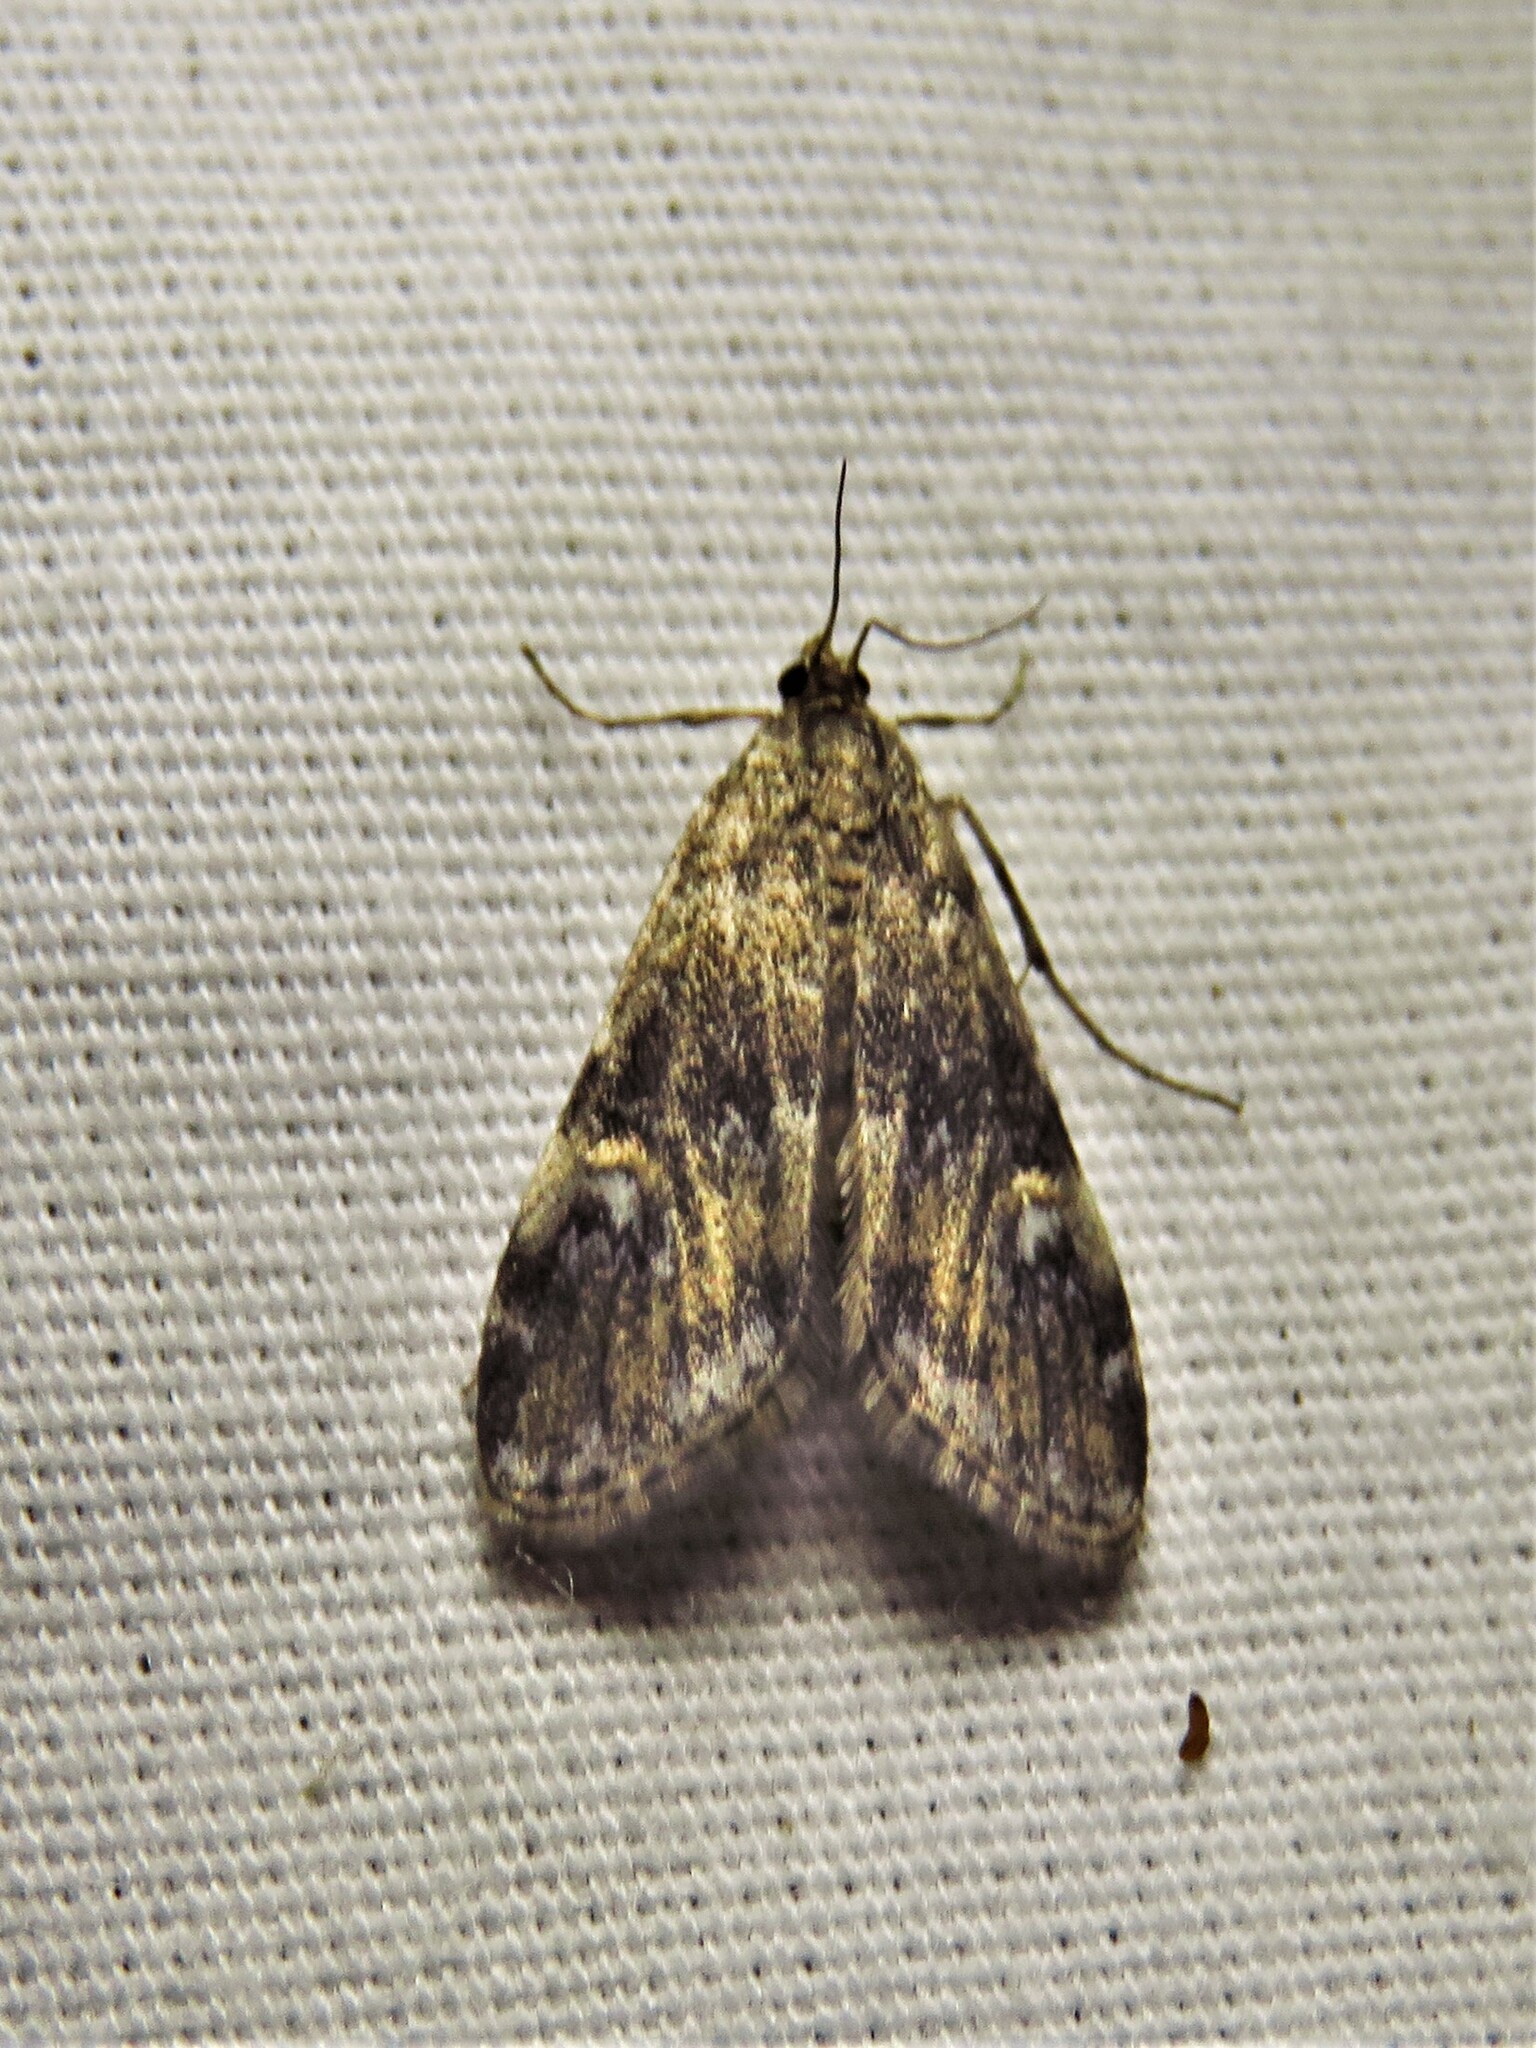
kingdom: Animalia
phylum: Arthropoda
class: Insecta
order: Lepidoptera
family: Crambidae
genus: Elophila
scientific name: Elophila obliteralis
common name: Waterlily leafcutter moth
